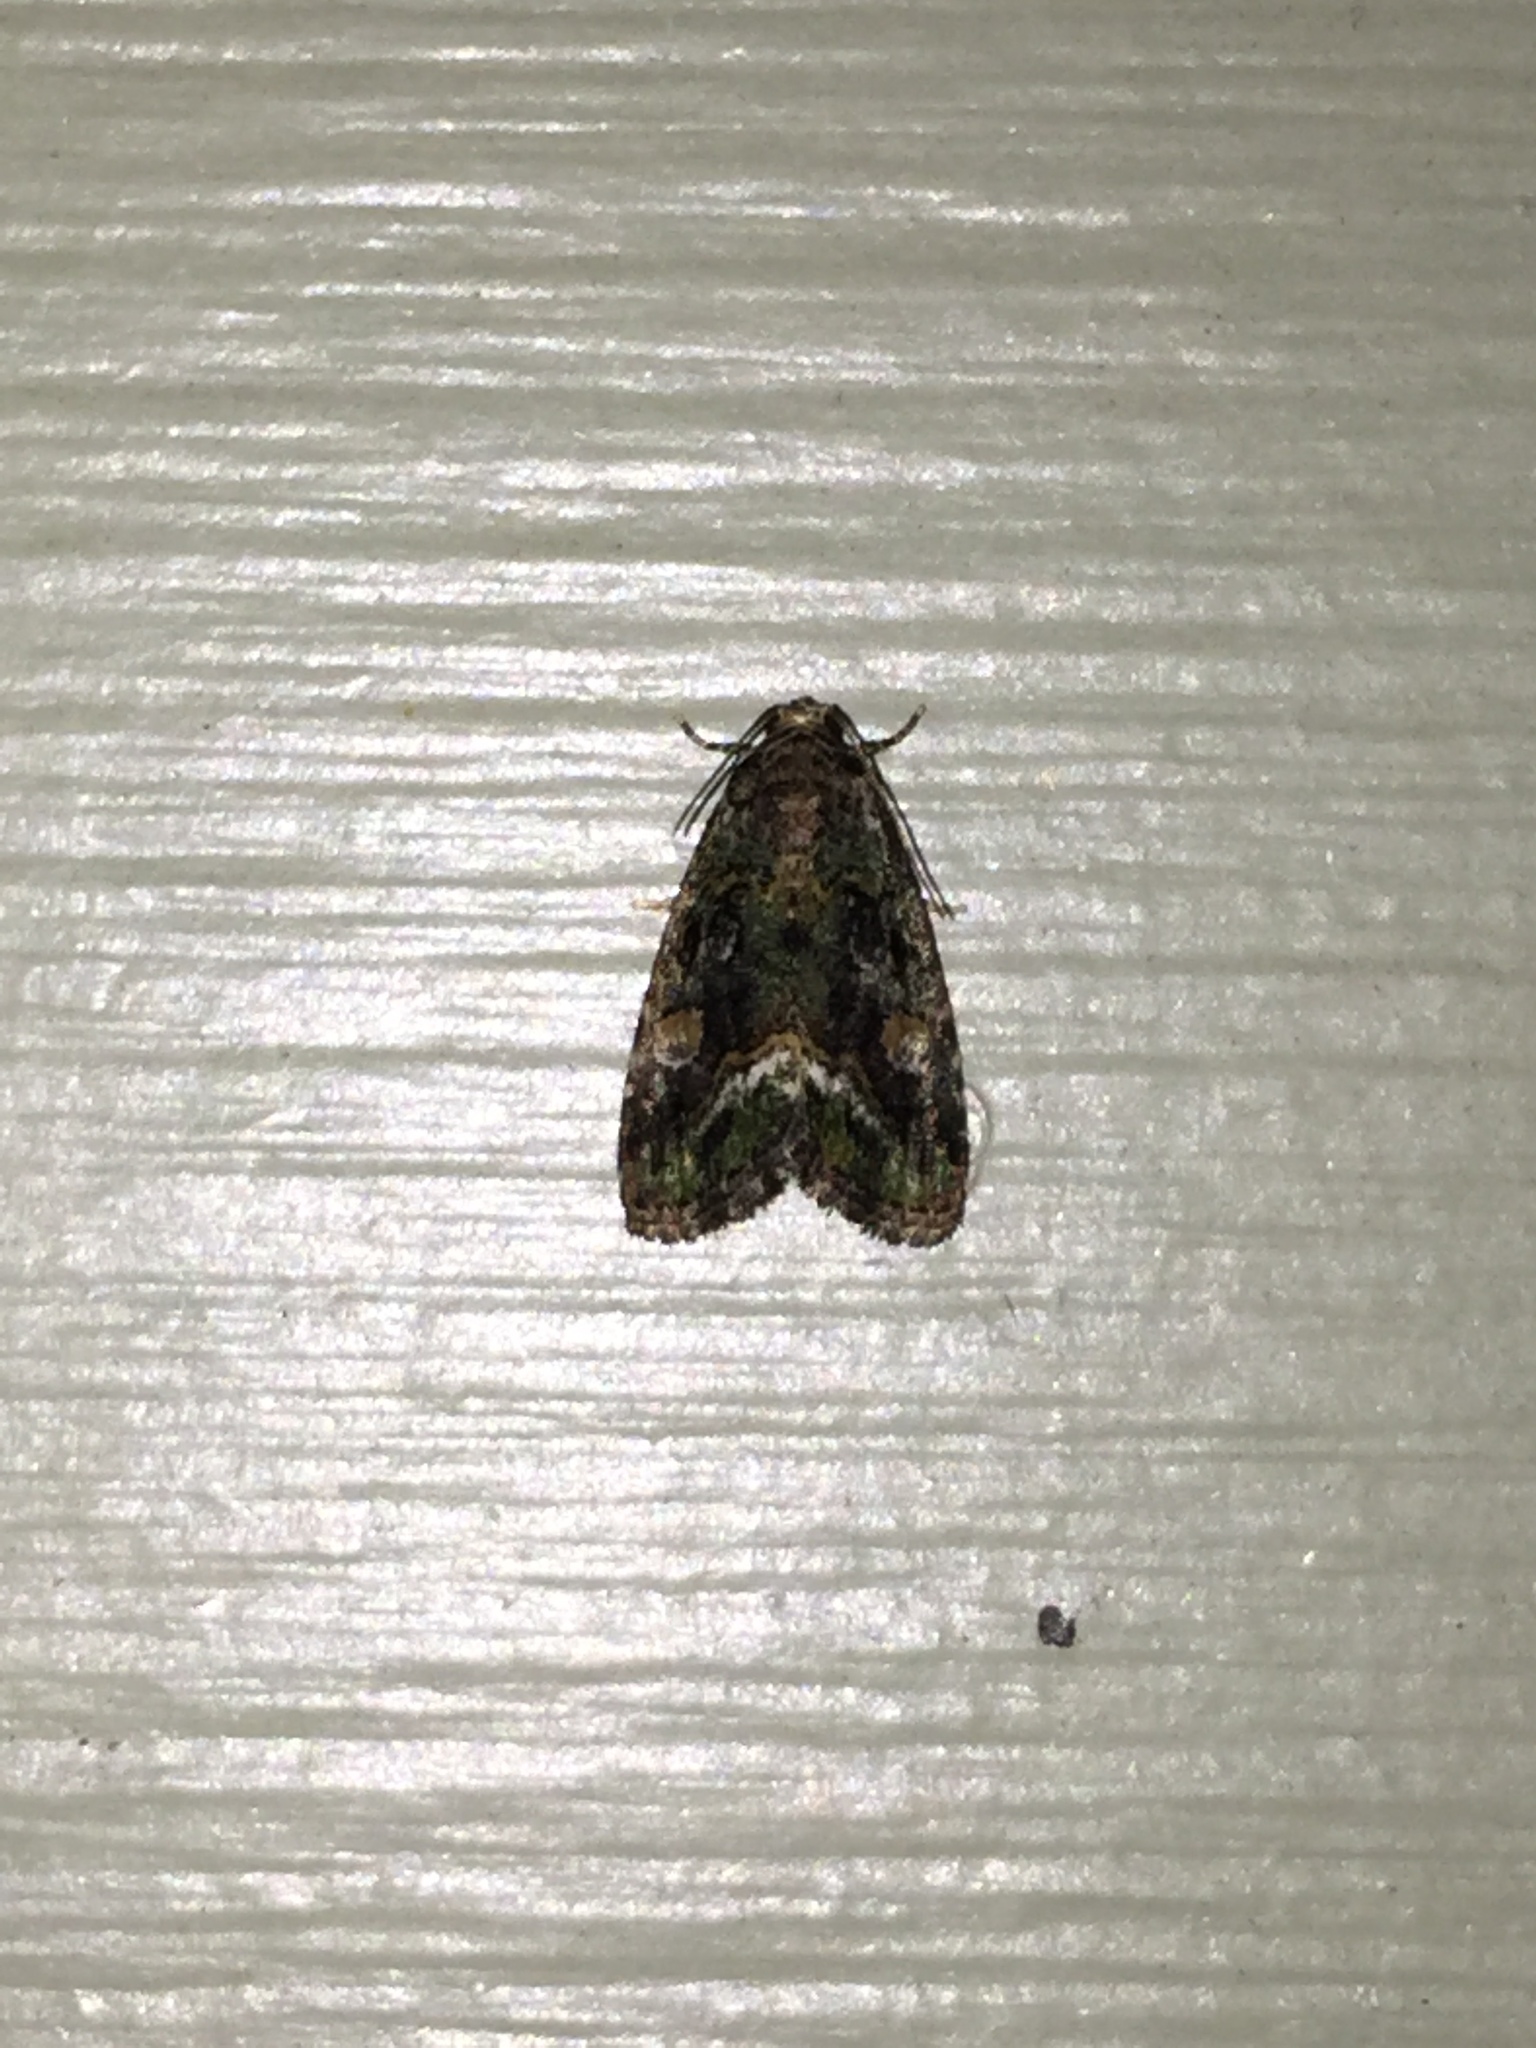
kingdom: Animalia
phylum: Arthropoda
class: Insecta
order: Lepidoptera
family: Noctuidae
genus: Lithacodia
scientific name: Lithacodia musta
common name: Small mossy glyph
